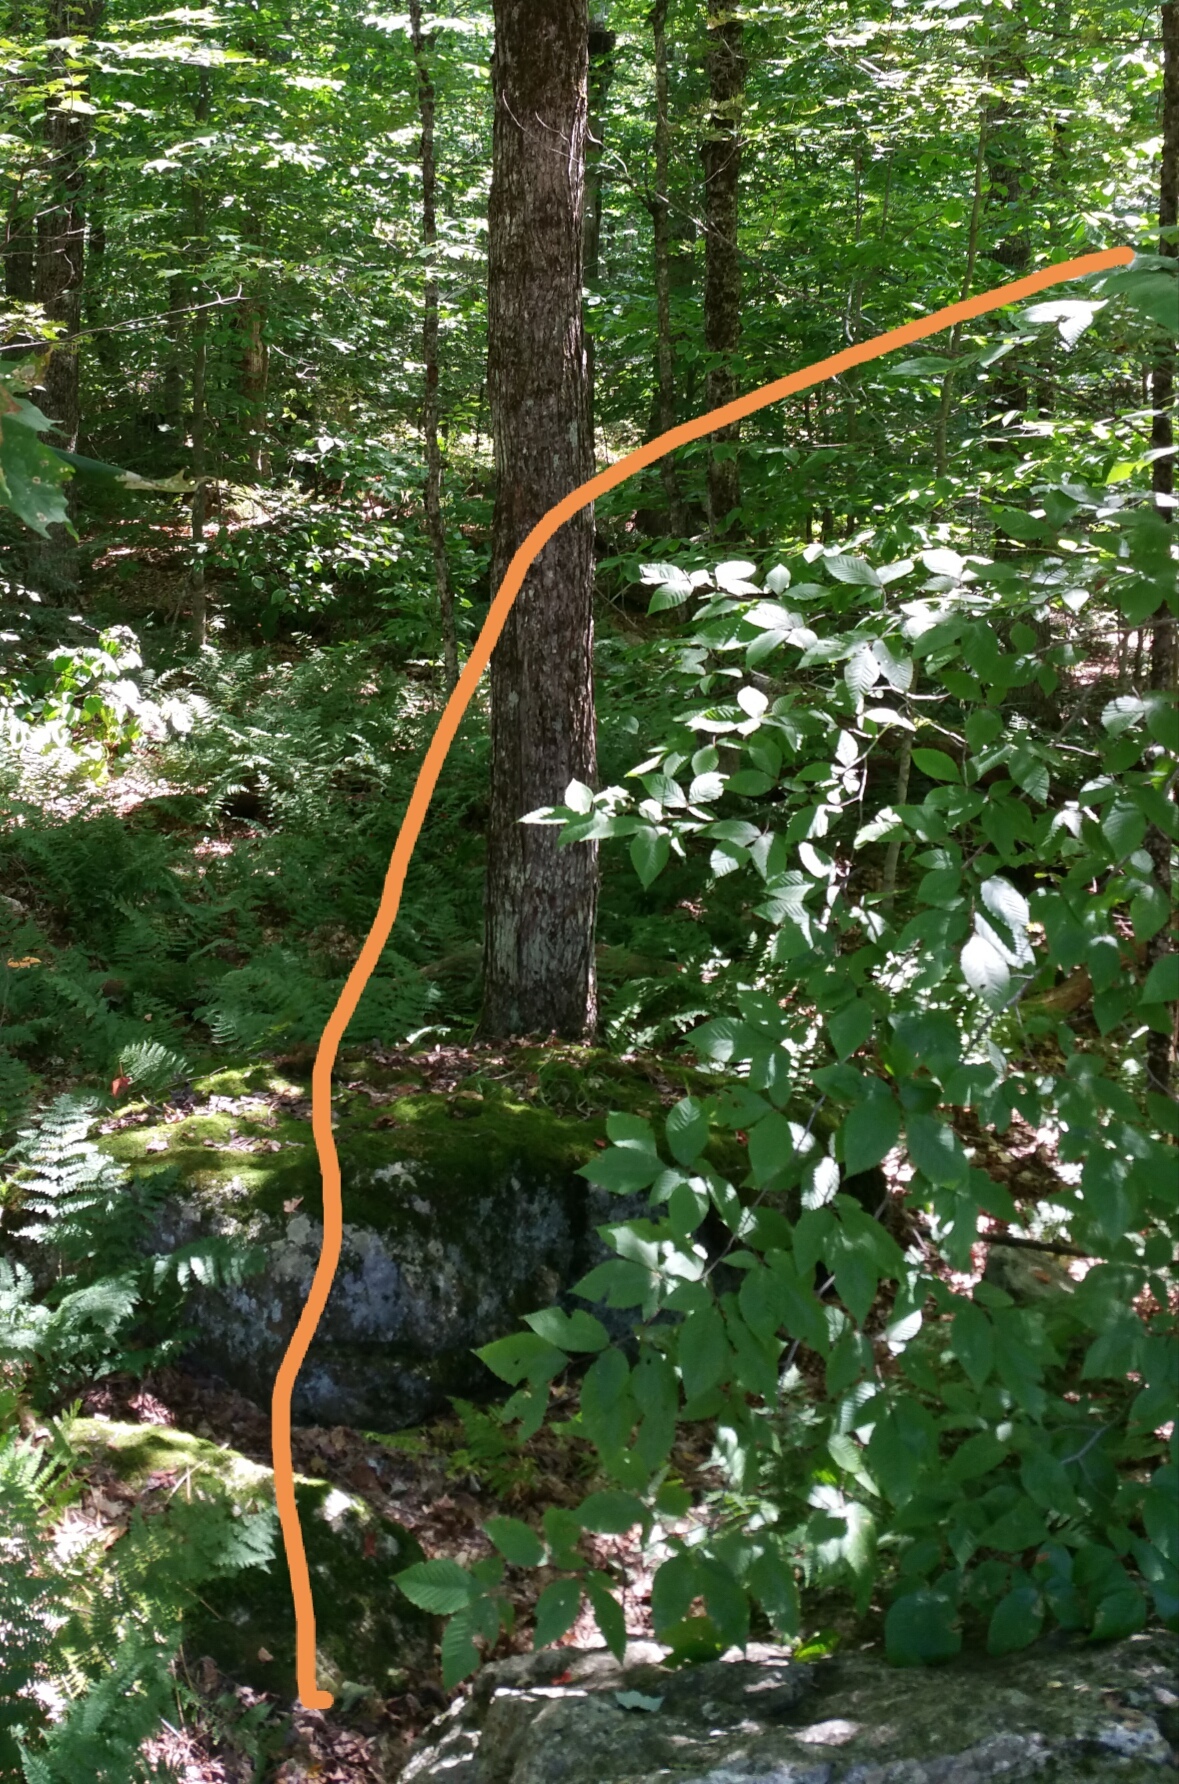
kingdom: Plantae
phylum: Tracheophyta
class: Magnoliopsida
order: Fagales
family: Fagaceae
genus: Fagus
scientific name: Fagus grandifolia
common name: American beech
